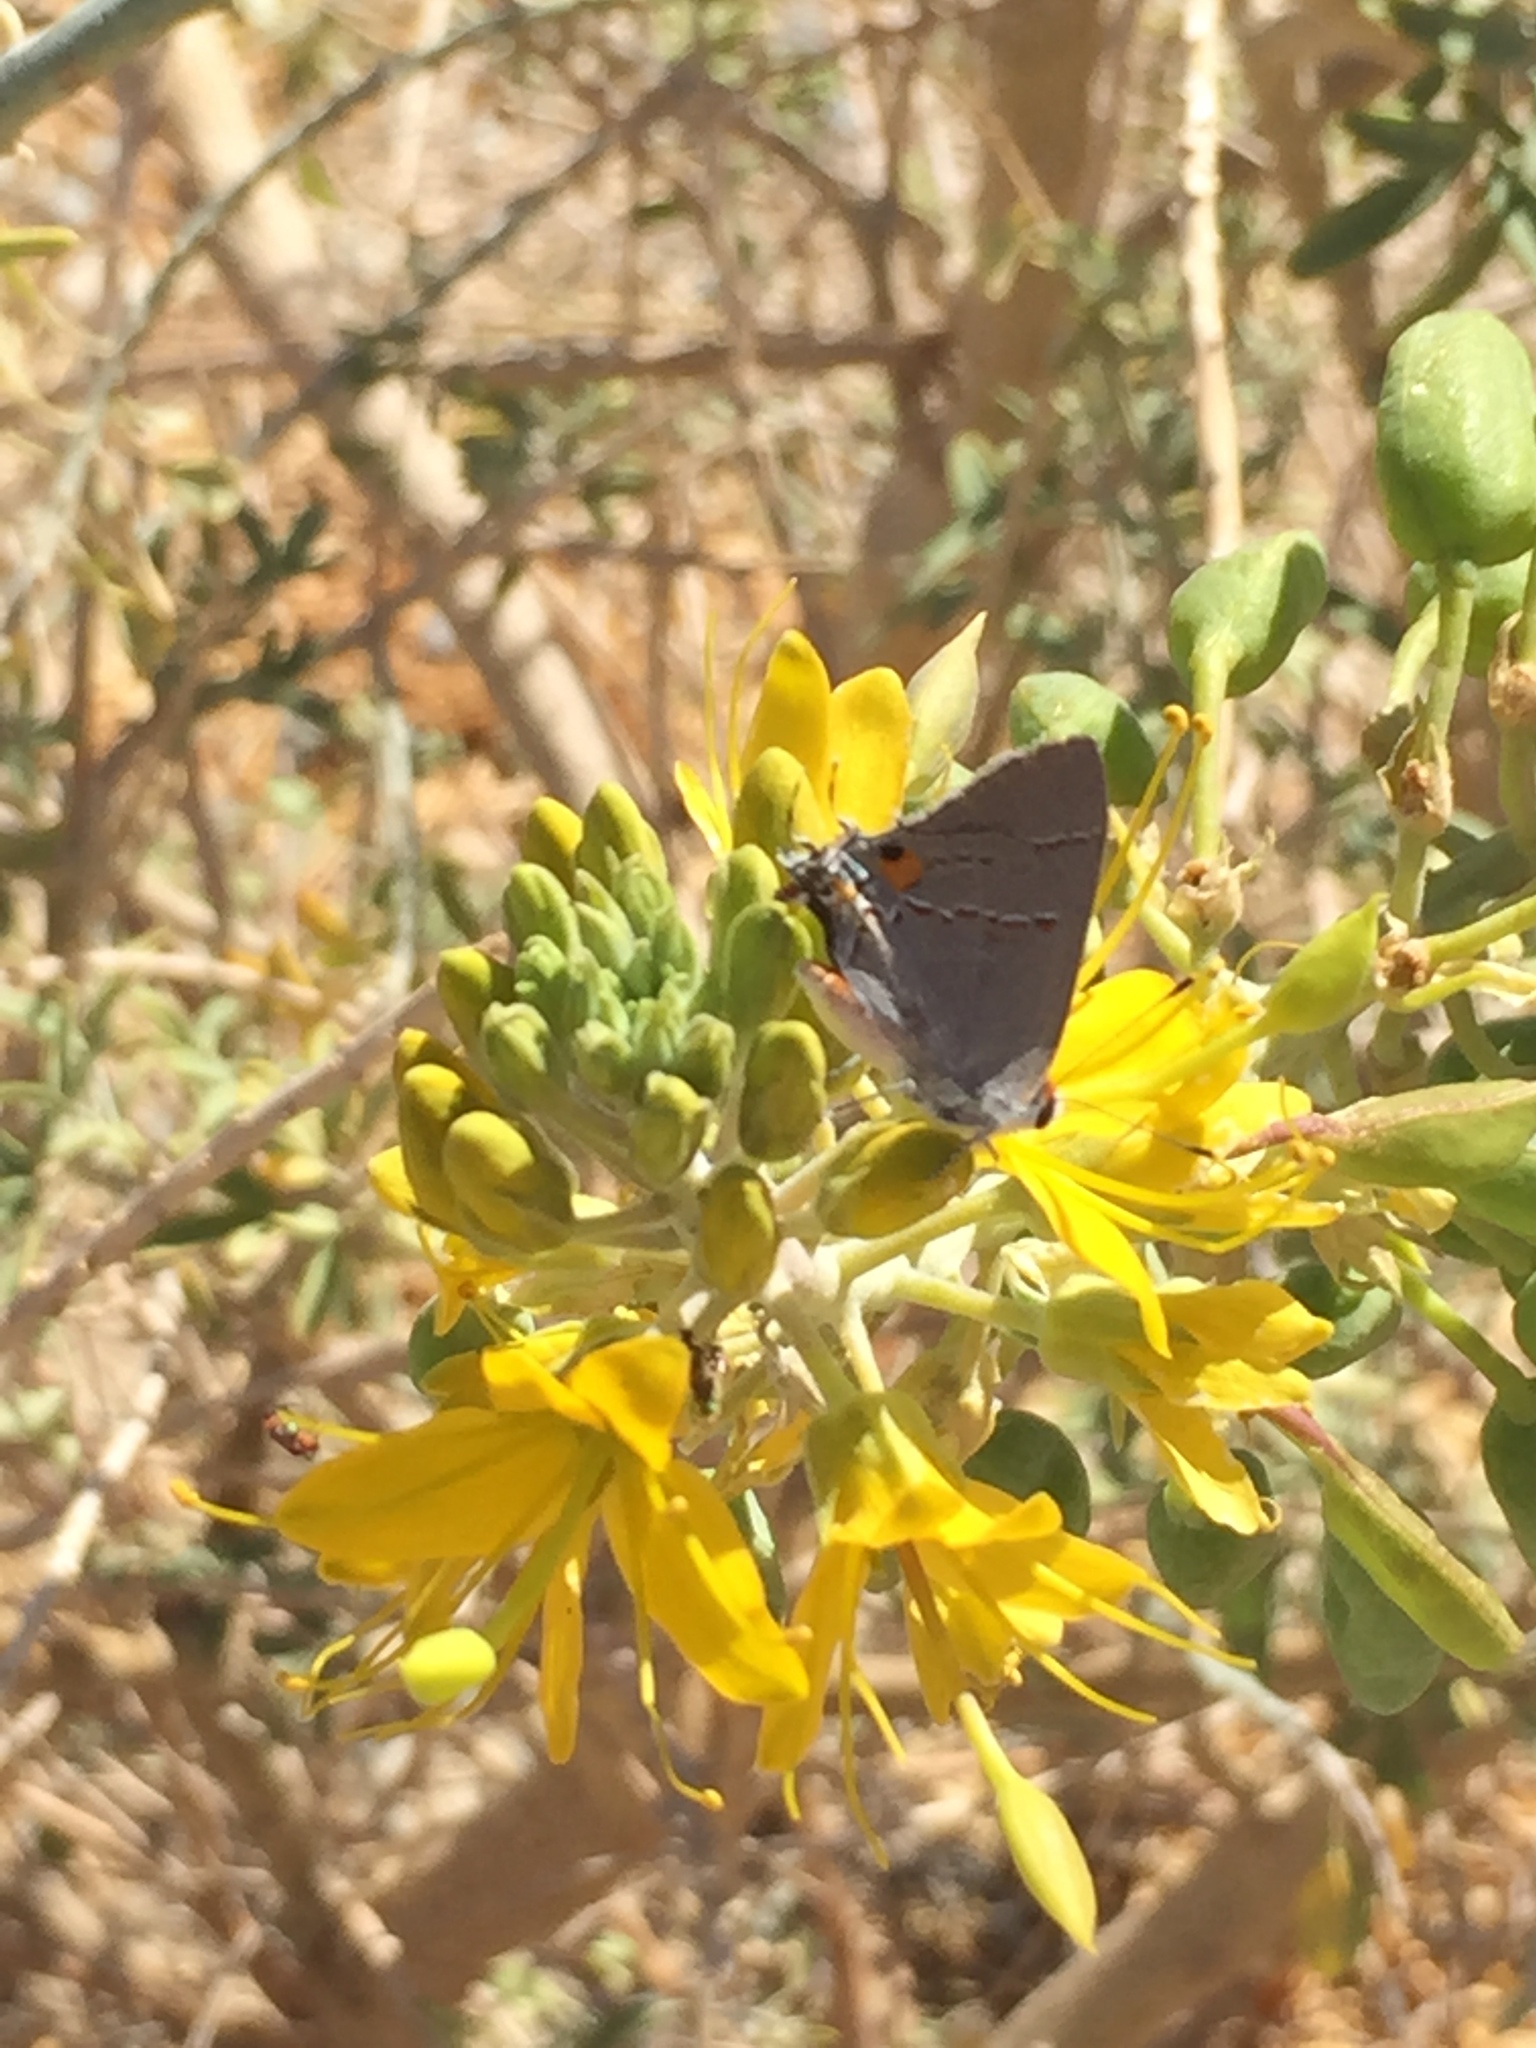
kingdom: Animalia
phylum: Arthropoda
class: Insecta
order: Lepidoptera
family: Lycaenidae
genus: Strymon
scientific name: Strymon melinus
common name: Gray hairstreak
